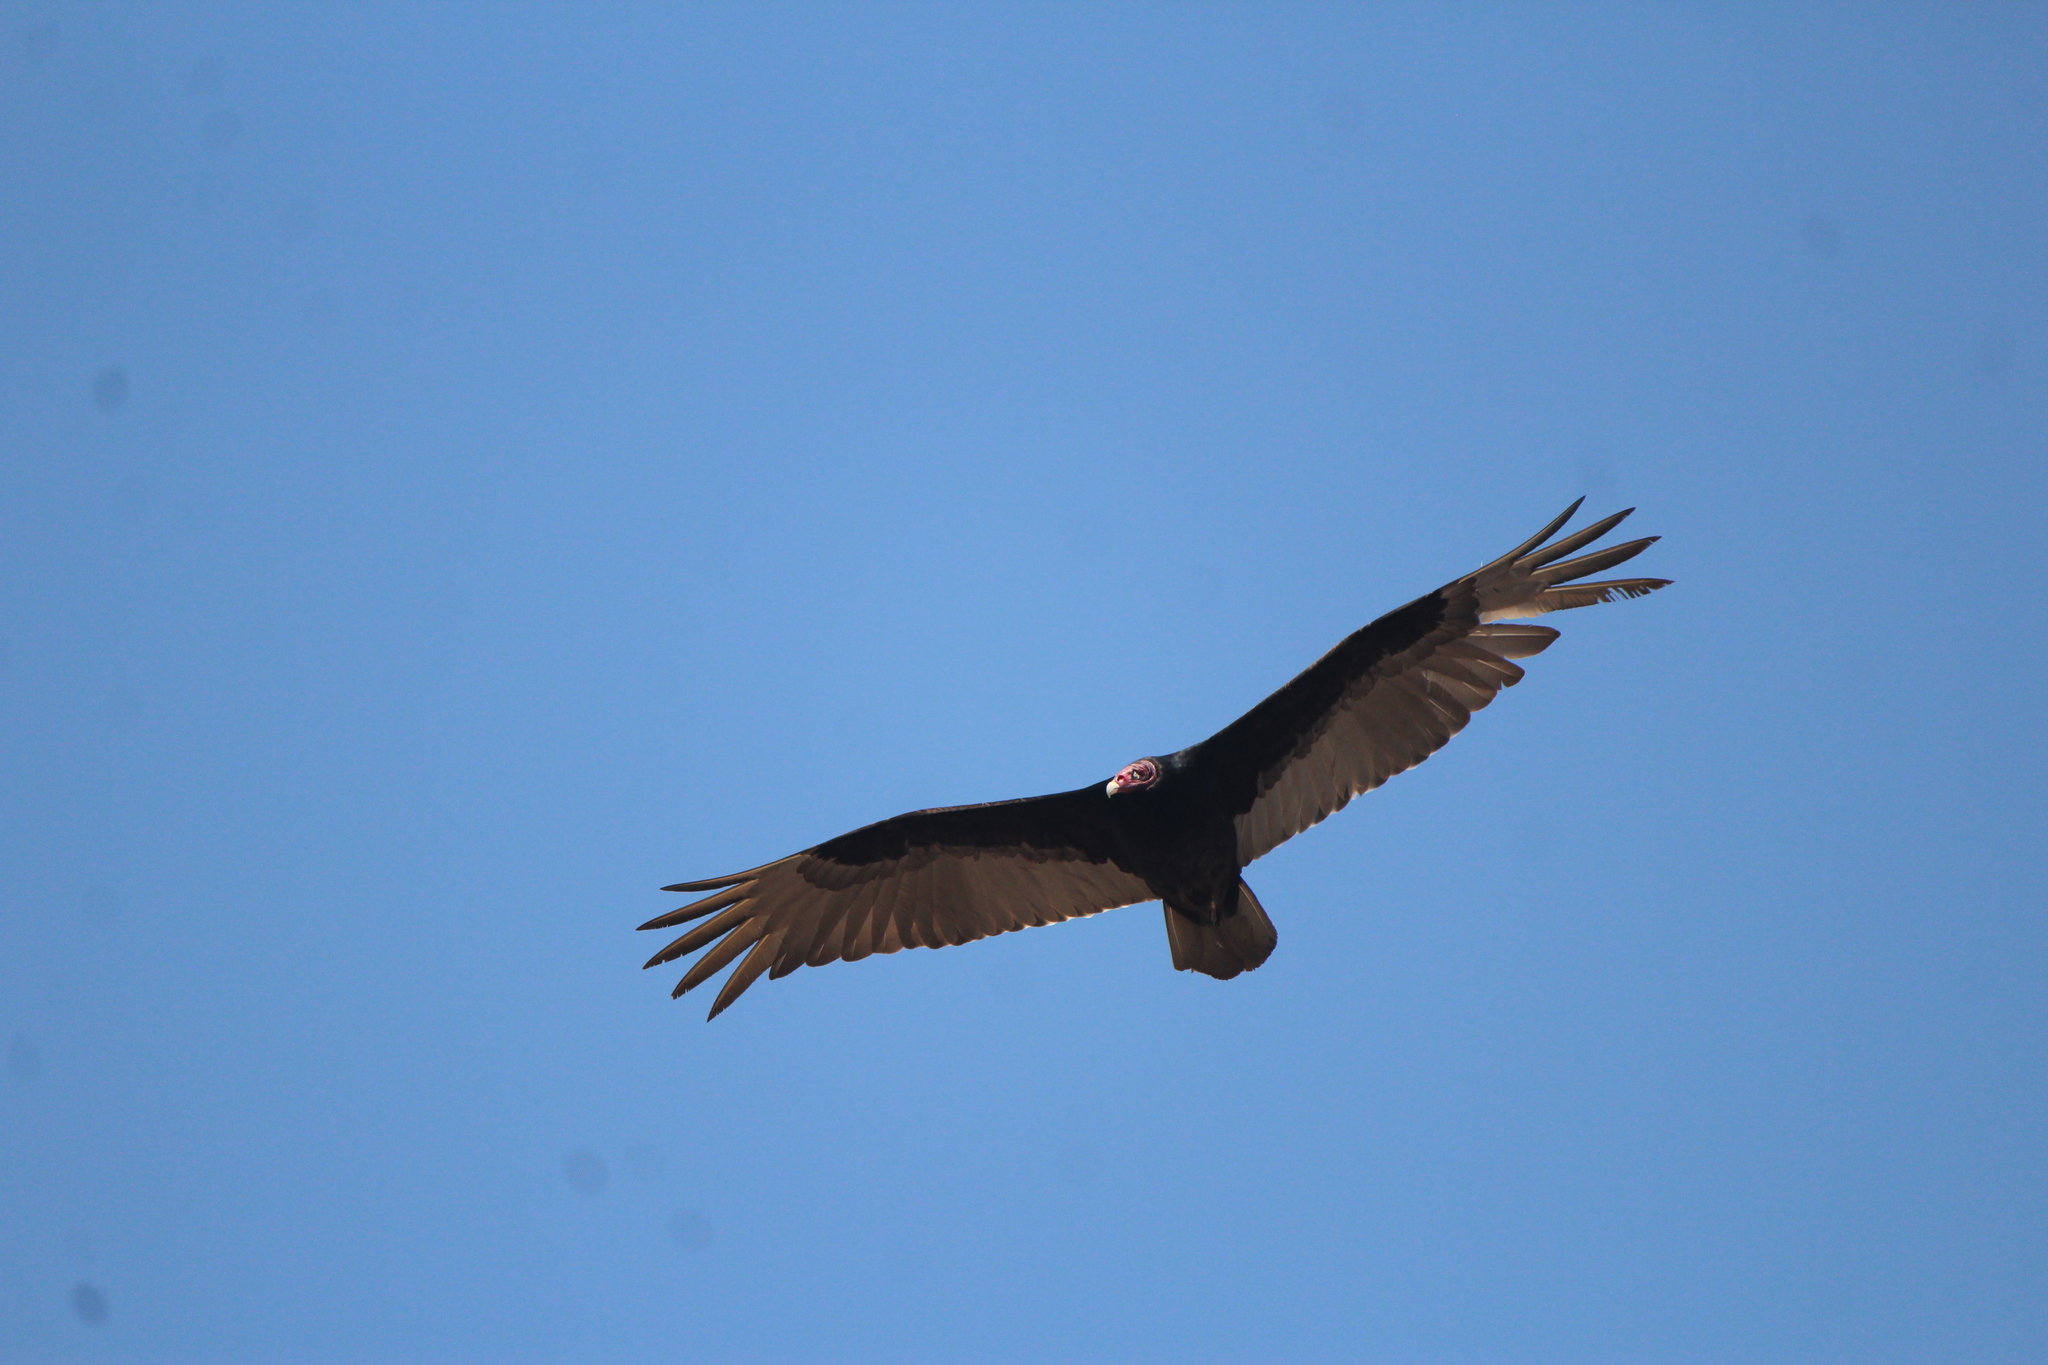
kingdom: Animalia
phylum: Chordata
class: Aves
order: Accipitriformes
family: Cathartidae
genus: Cathartes
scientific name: Cathartes aura
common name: Turkey vulture
